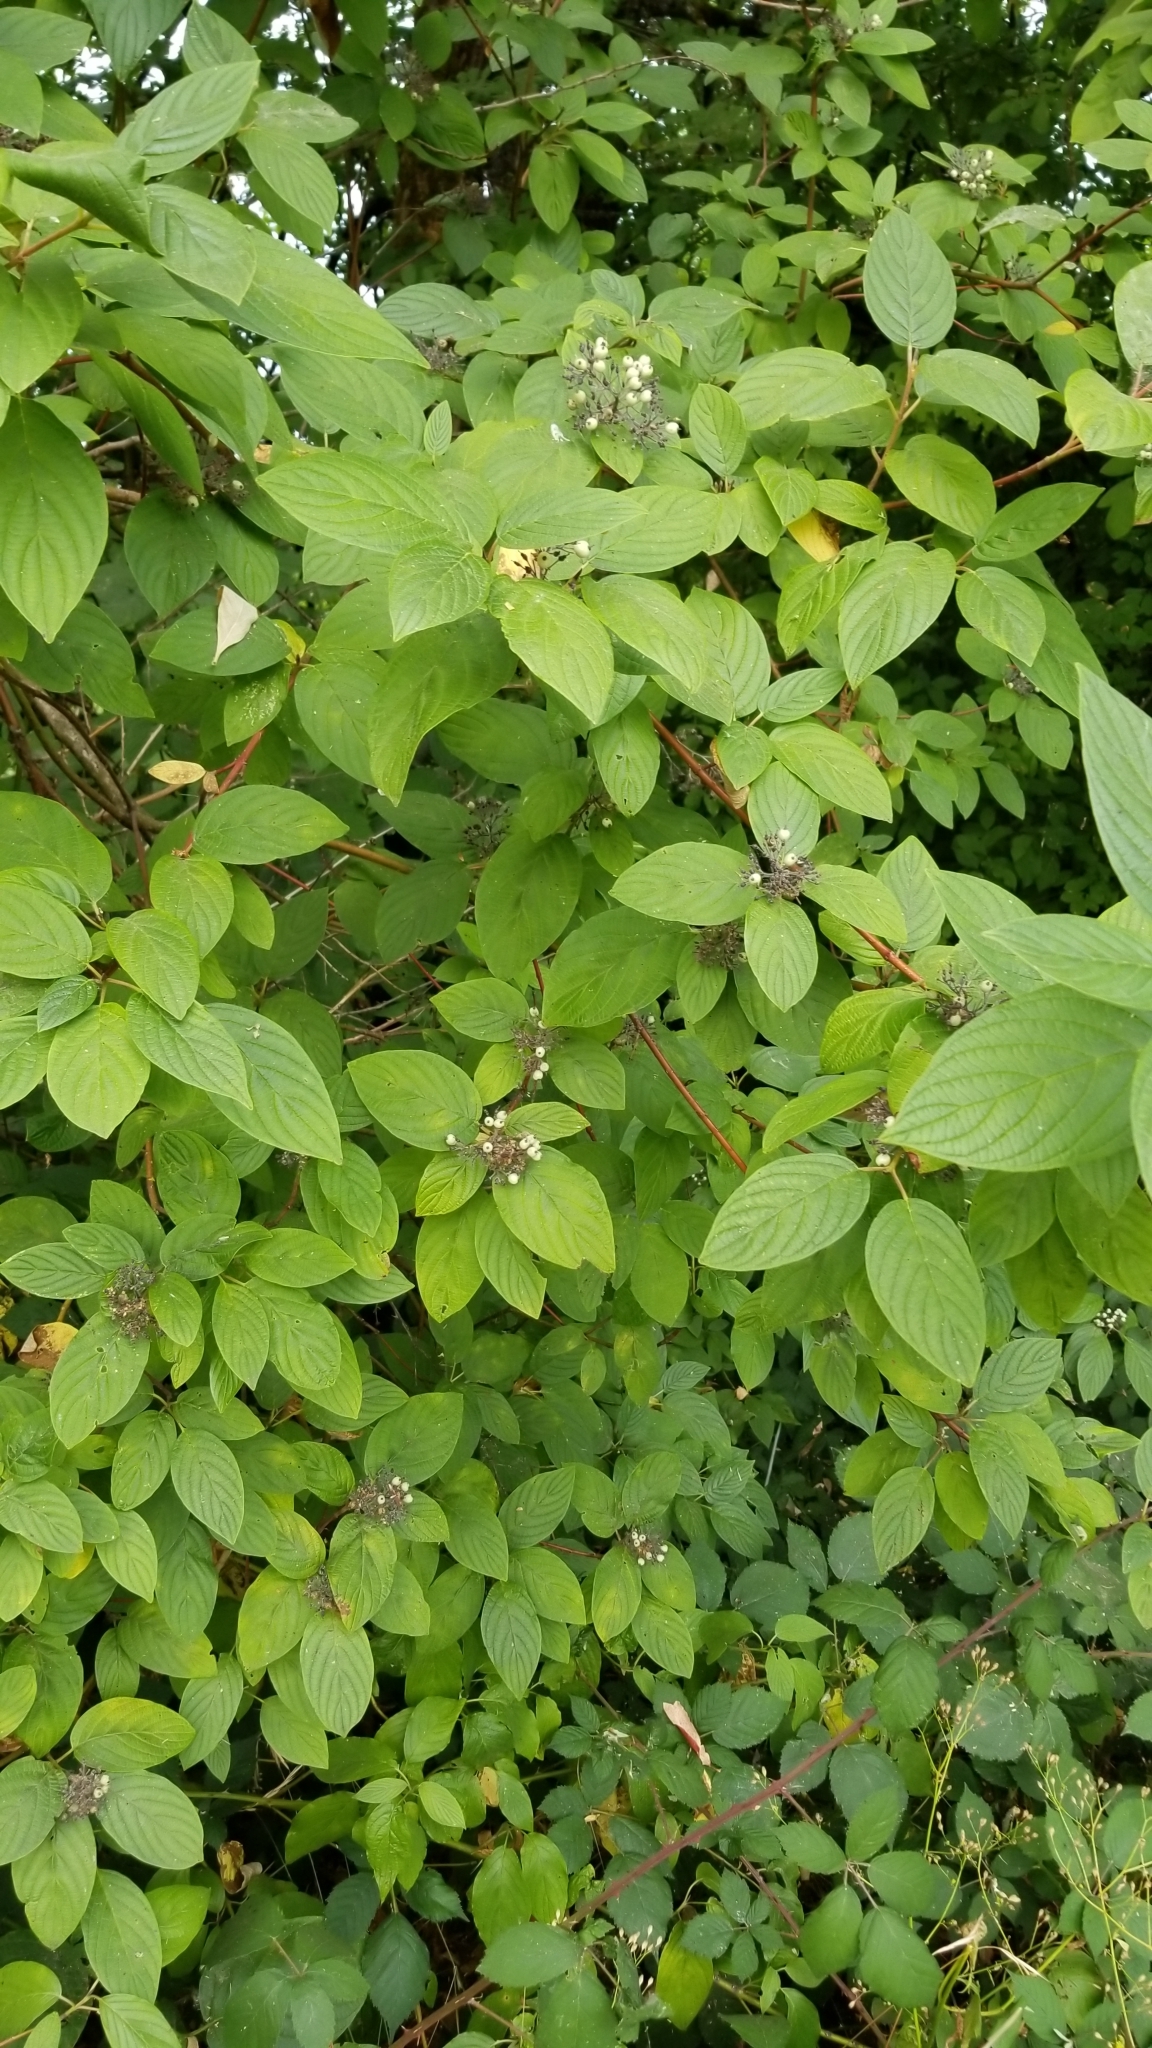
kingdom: Plantae
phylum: Tracheophyta
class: Magnoliopsida
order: Cornales
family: Cornaceae
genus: Cornus
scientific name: Cornus sericea
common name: Red-osier dogwood
